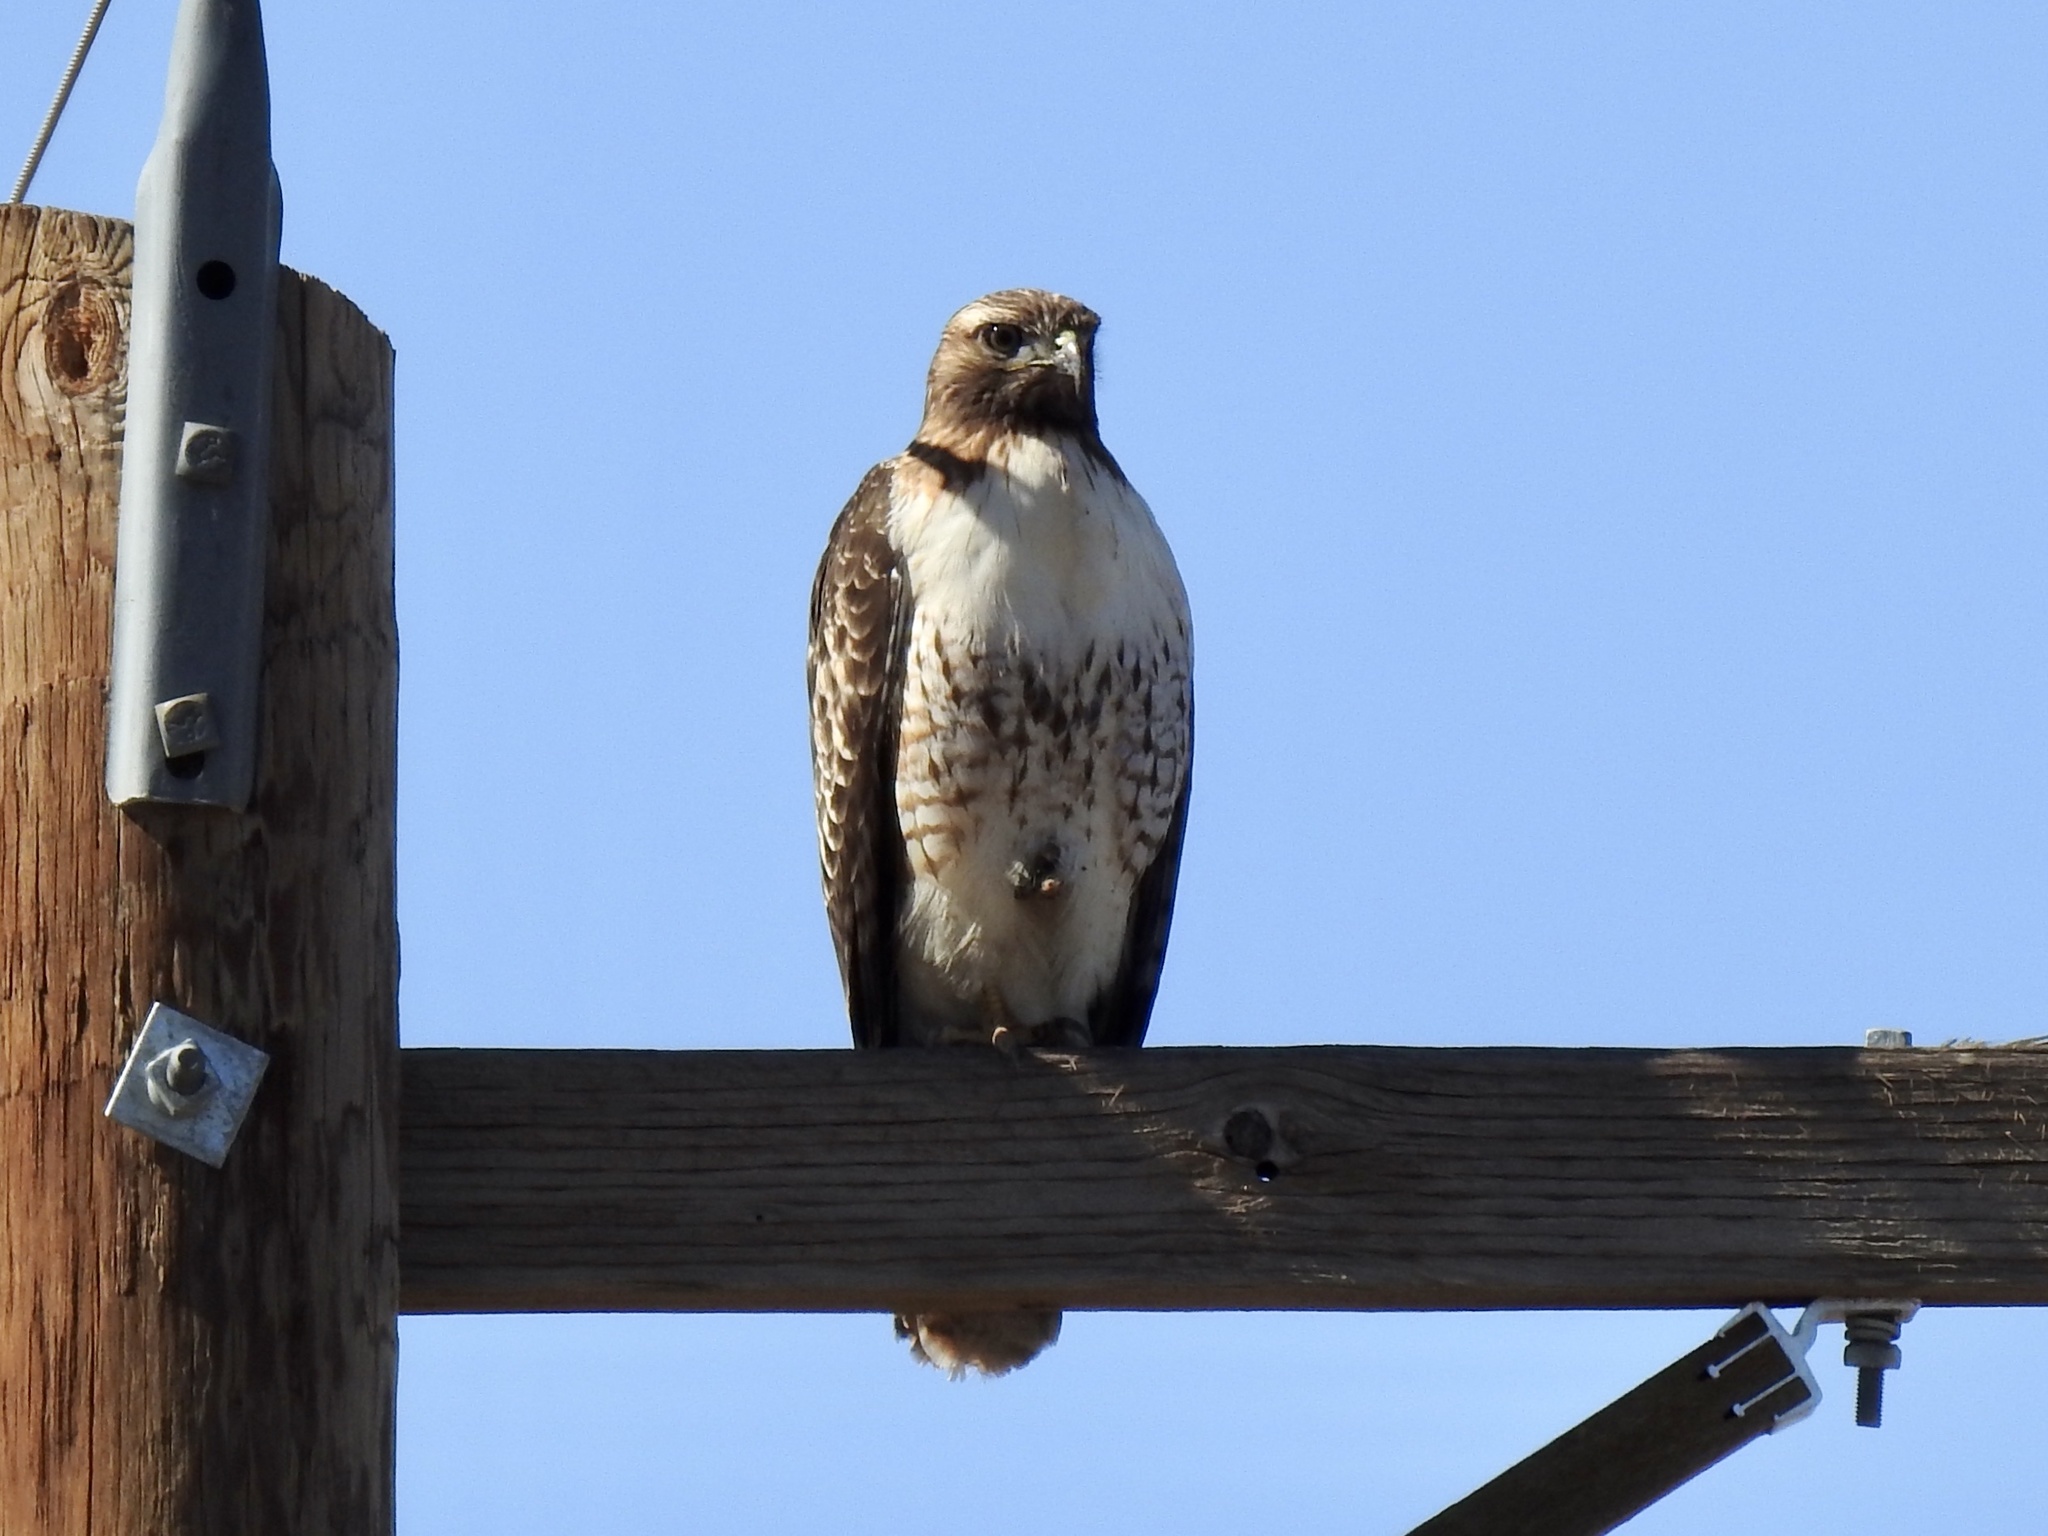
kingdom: Animalia
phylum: Chordata
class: Aves
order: Accipitriformes
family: Accipitridae
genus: Buteo
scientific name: Buteo jamaicensis
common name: Red-tailed hawk
